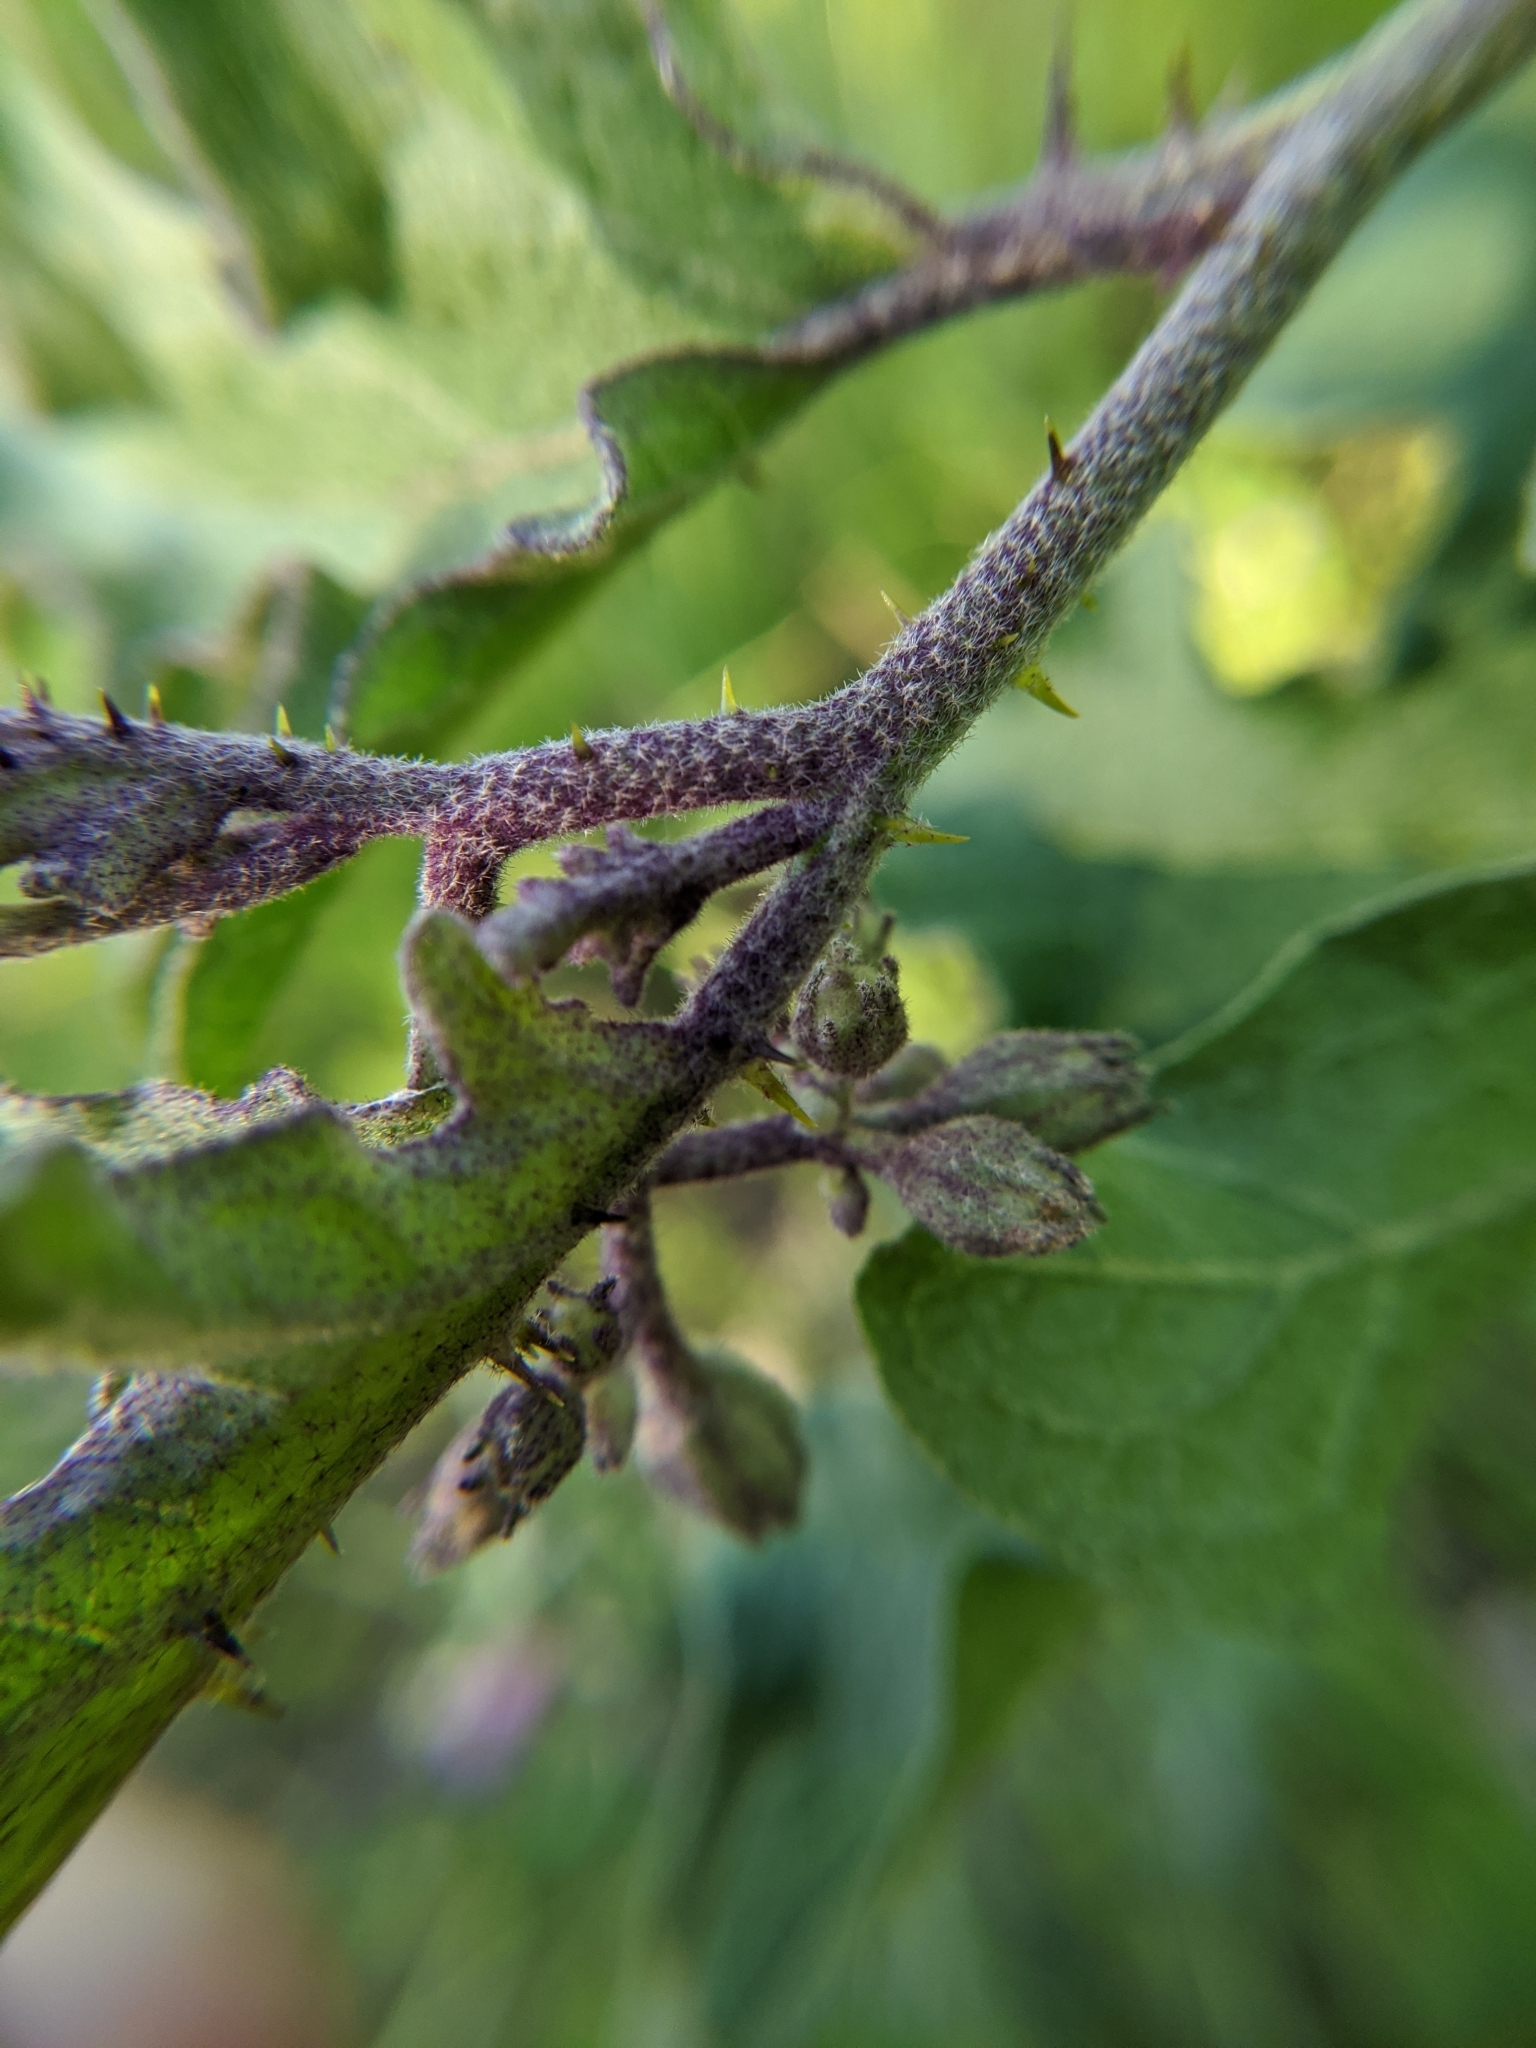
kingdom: Plantae
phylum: Tracheophyta
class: Magnoliopsida
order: Solanales
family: Solanaceae
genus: Solanum
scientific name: Solanum dimidiatum
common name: Carolina horse-nettle
